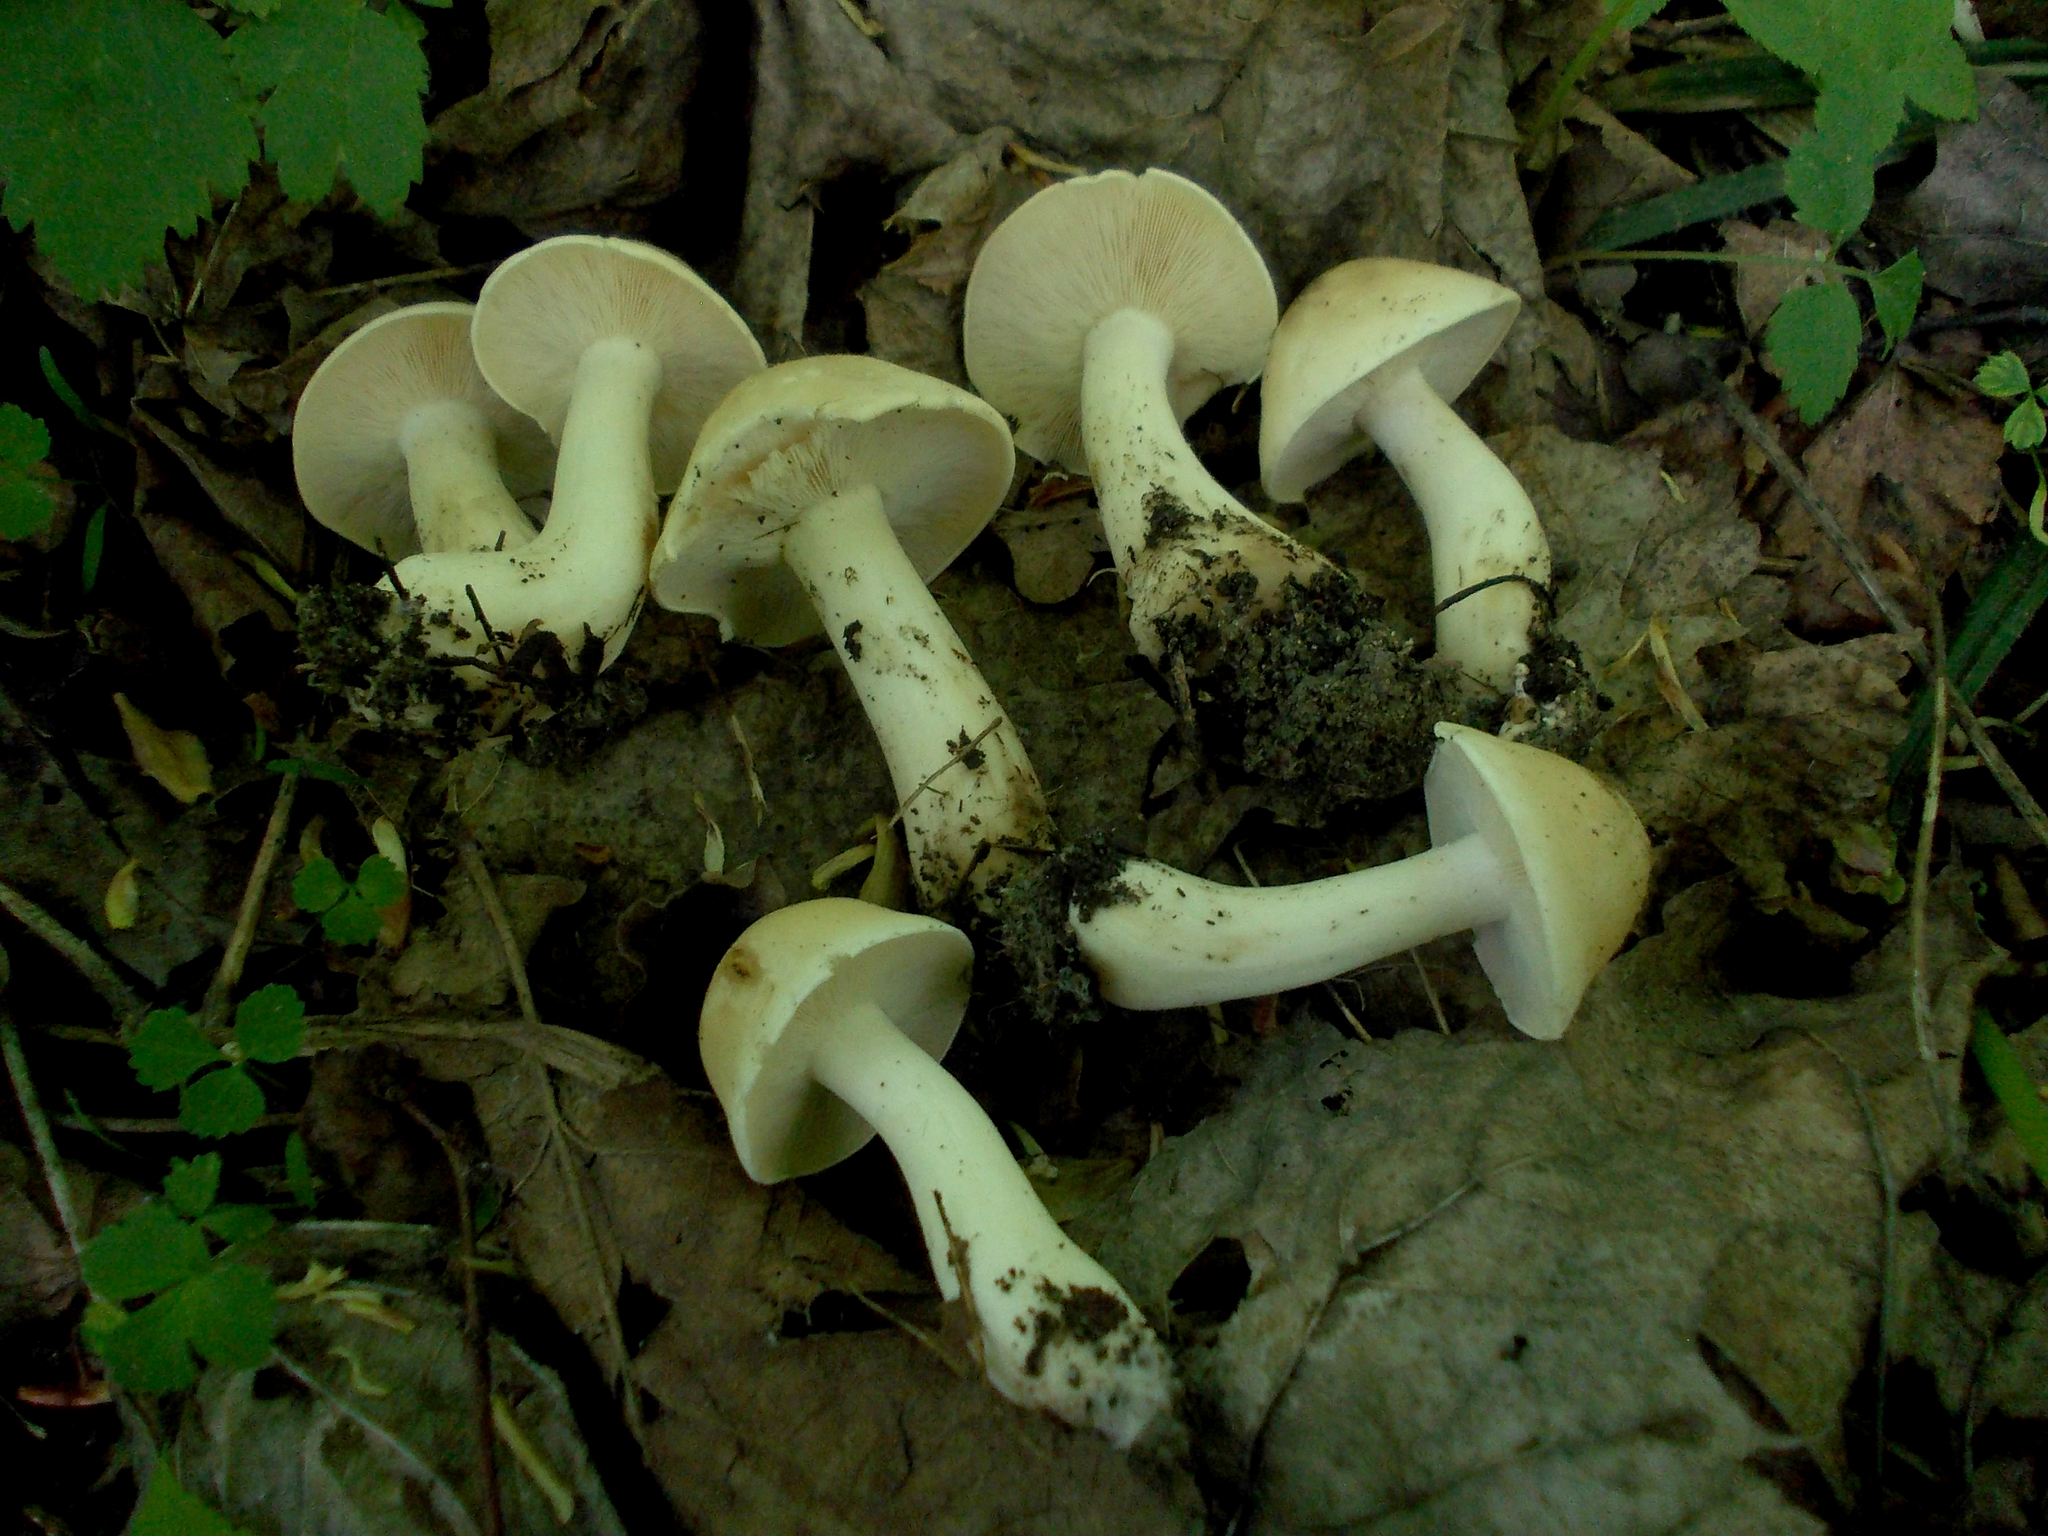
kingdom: Fungi
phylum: Basidiomycota
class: Agaricomycetes
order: Agaricales
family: Lyophyllaceae
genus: Calocybe
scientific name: Calocybe gambosa
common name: St. george's mushroom
